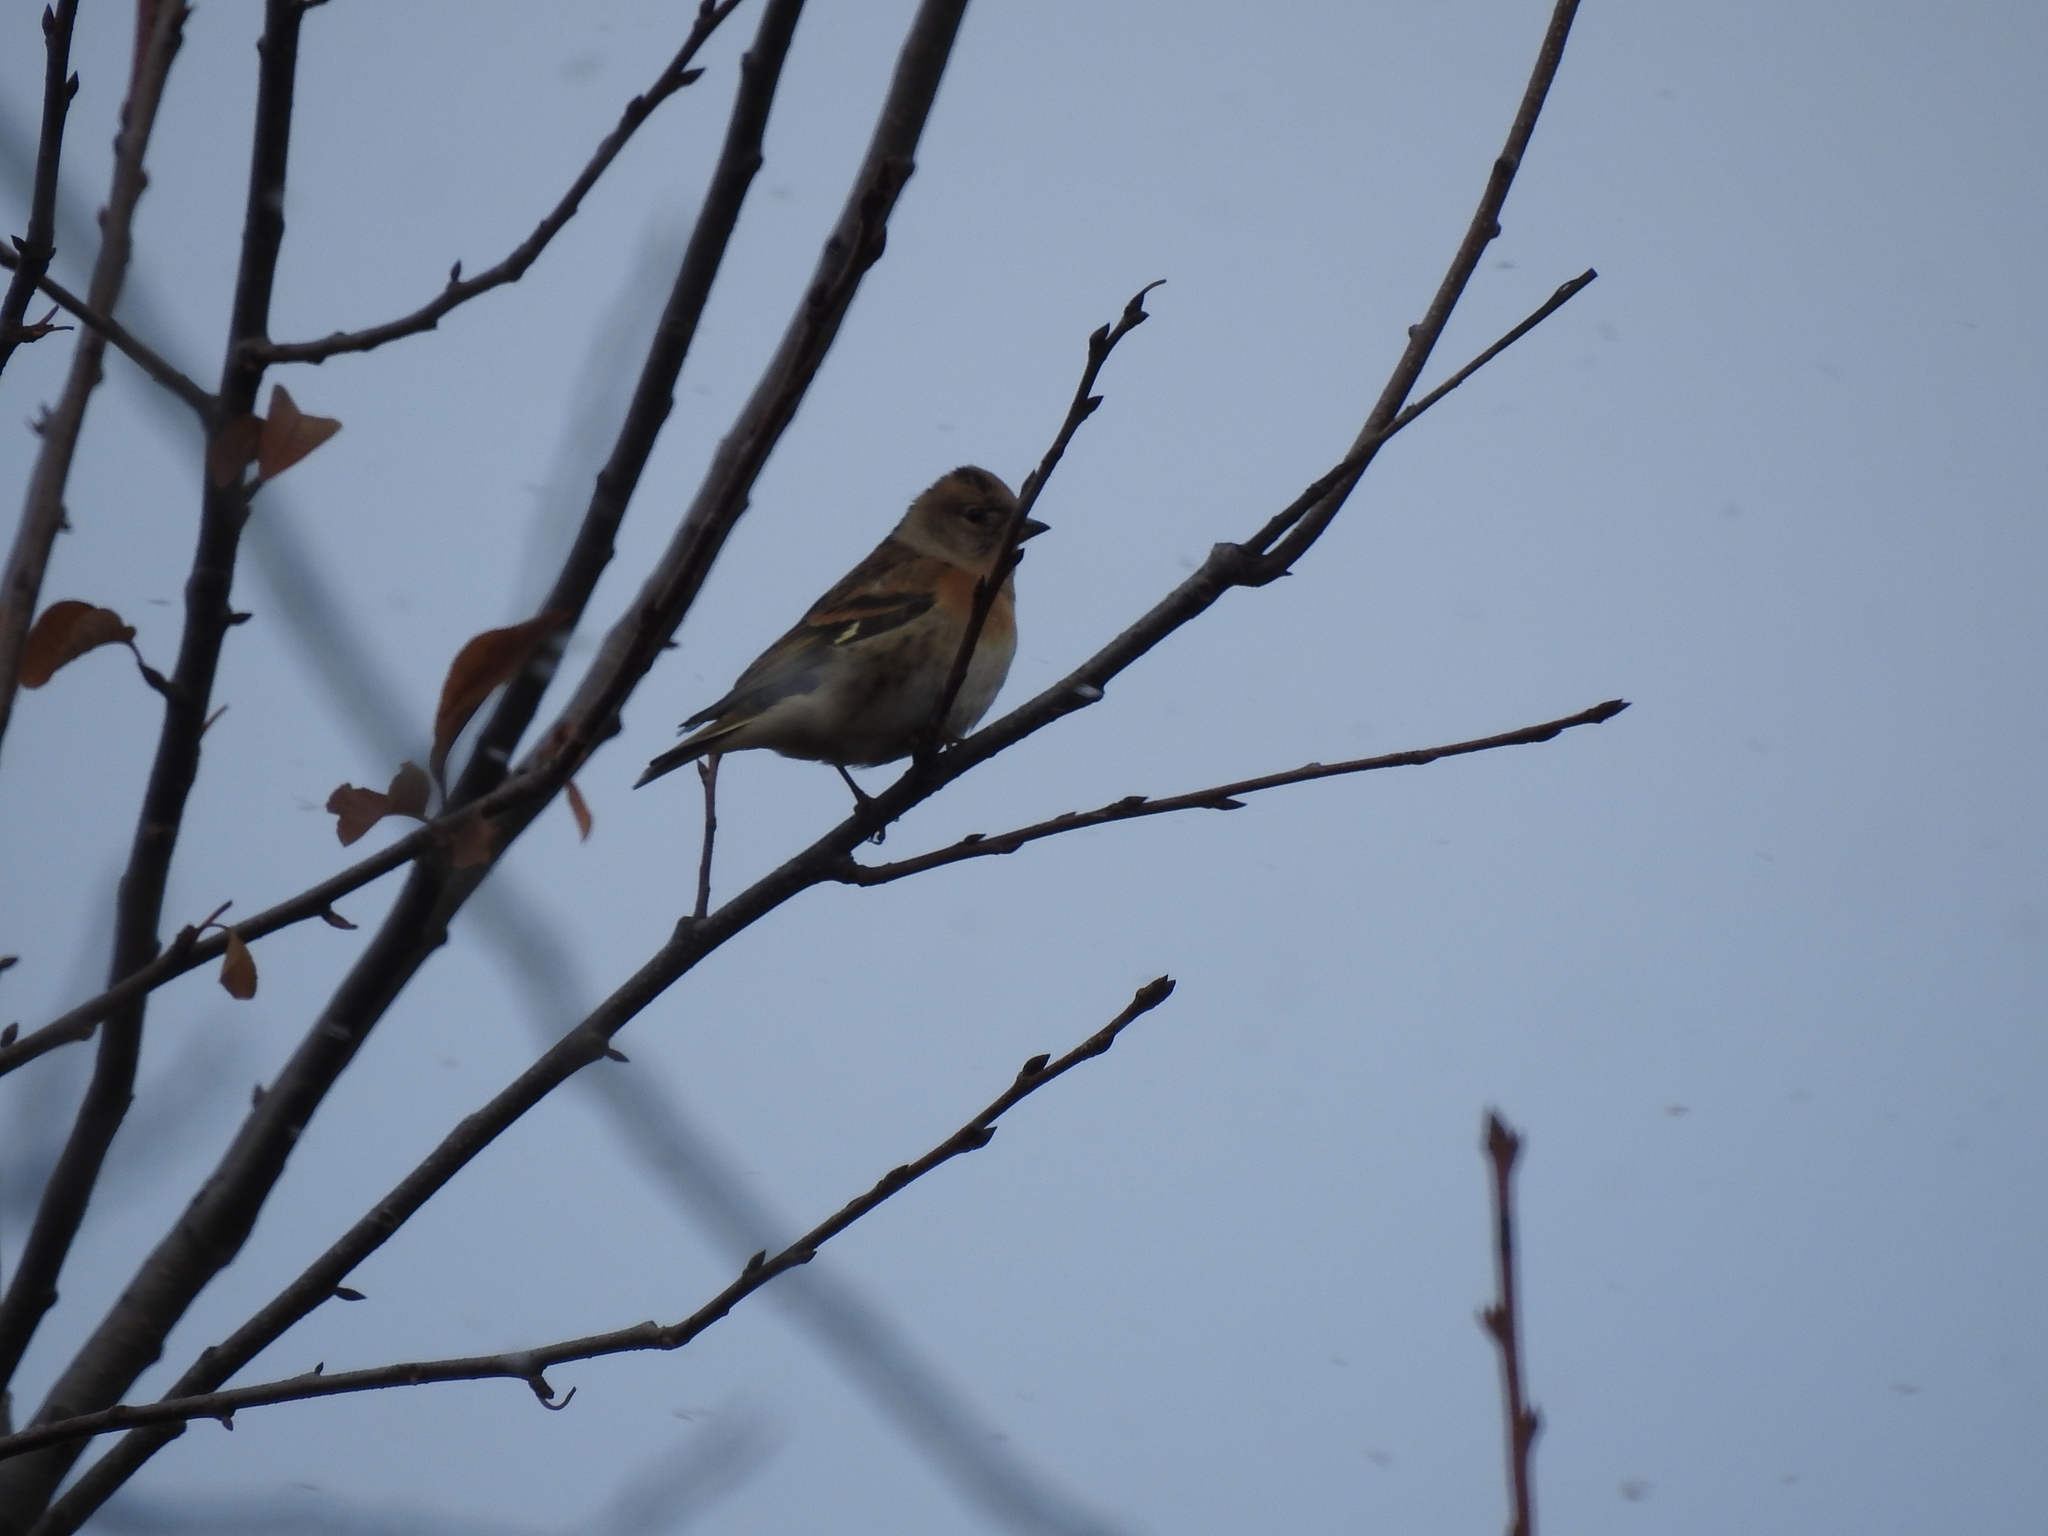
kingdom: Animalia
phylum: Chordata
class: Aves
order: Passeriformes
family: Fringillidae
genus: Fringilla
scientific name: Fringilla montifringilla
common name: Brambling
